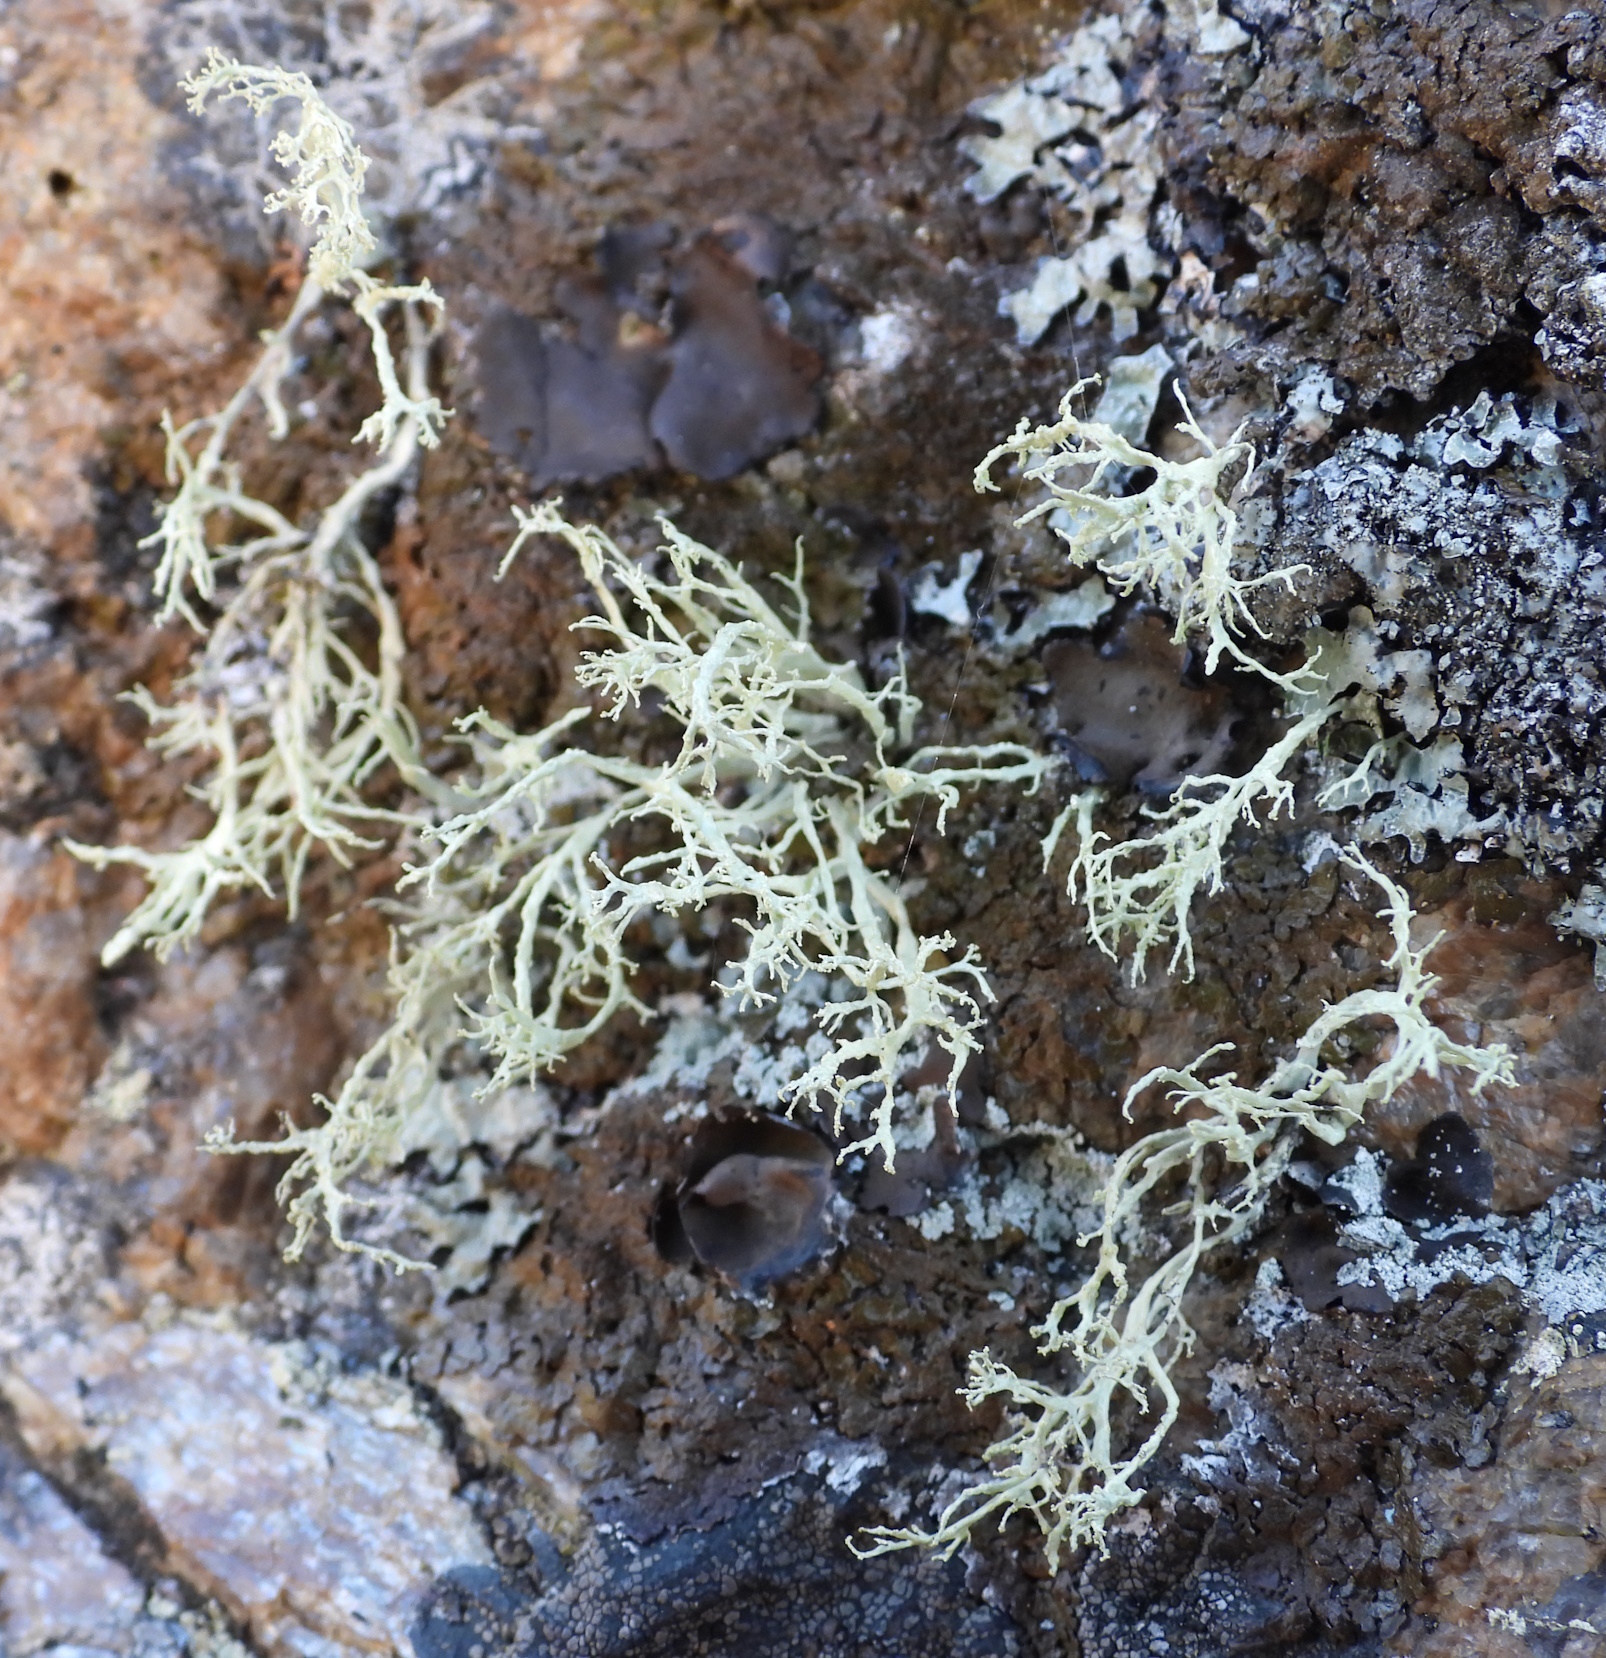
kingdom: Fungi
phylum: Ascomycota
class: Lecanoromycetes
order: Lecanorales
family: Ramalinaceae
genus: Ramalina
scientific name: Ramalina subfarinacea
